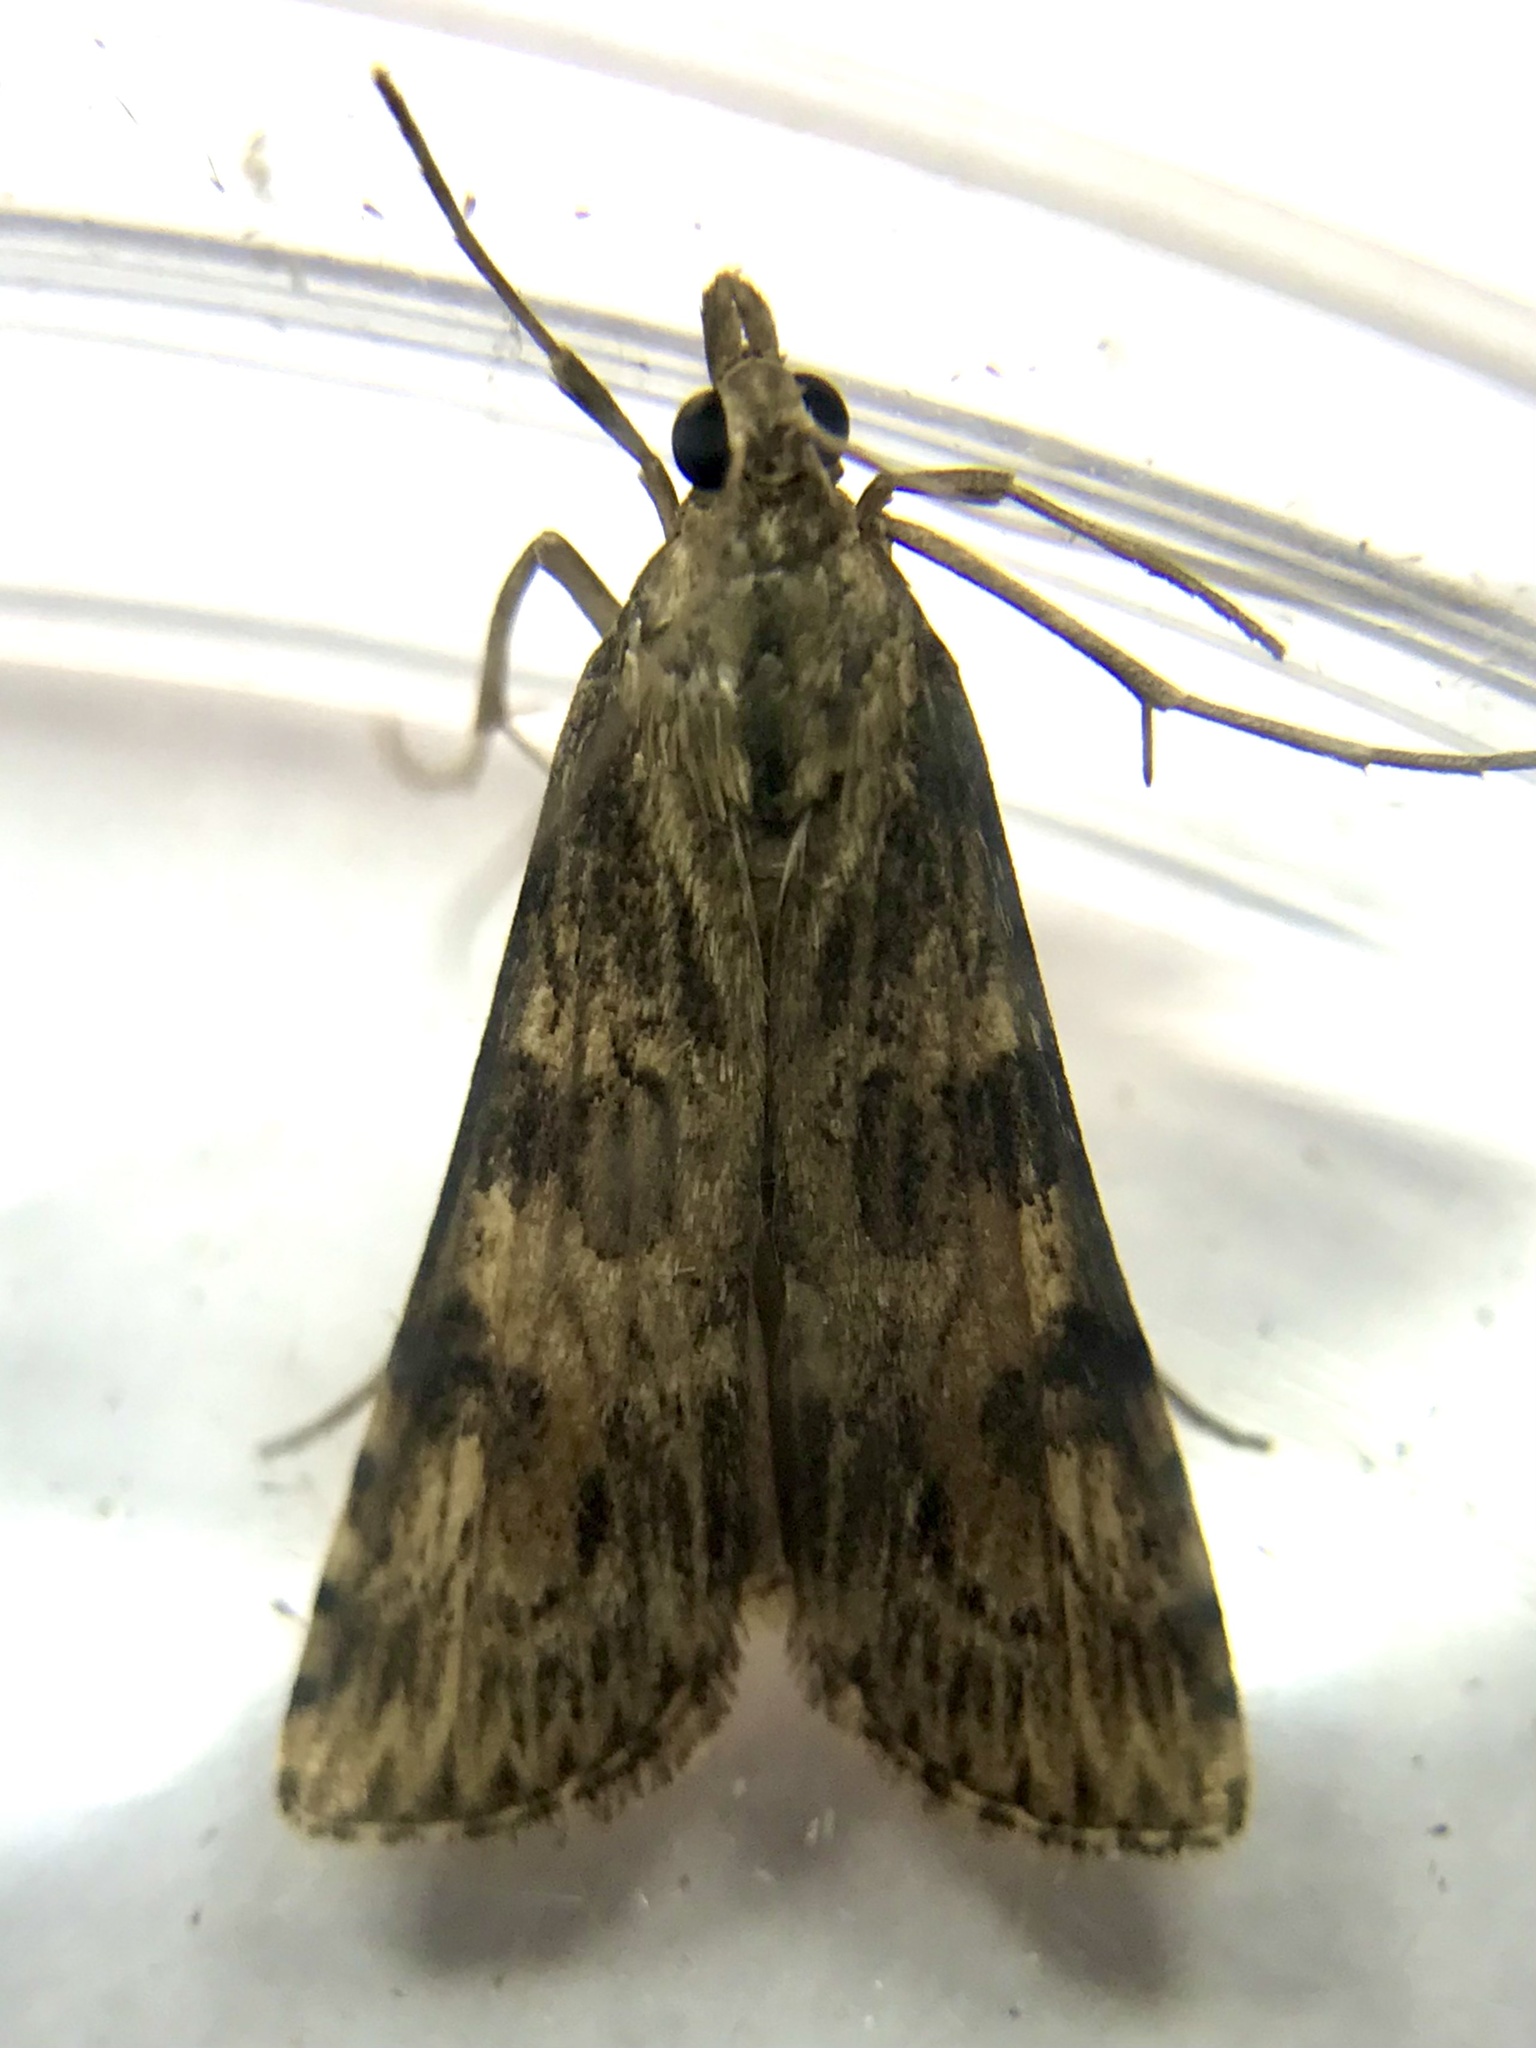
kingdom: Animalia
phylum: Arthropoda
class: Insecta
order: Lepidoptera
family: Crambidae
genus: Nomophila
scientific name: Nomophila nearctica
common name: American rush veneer
